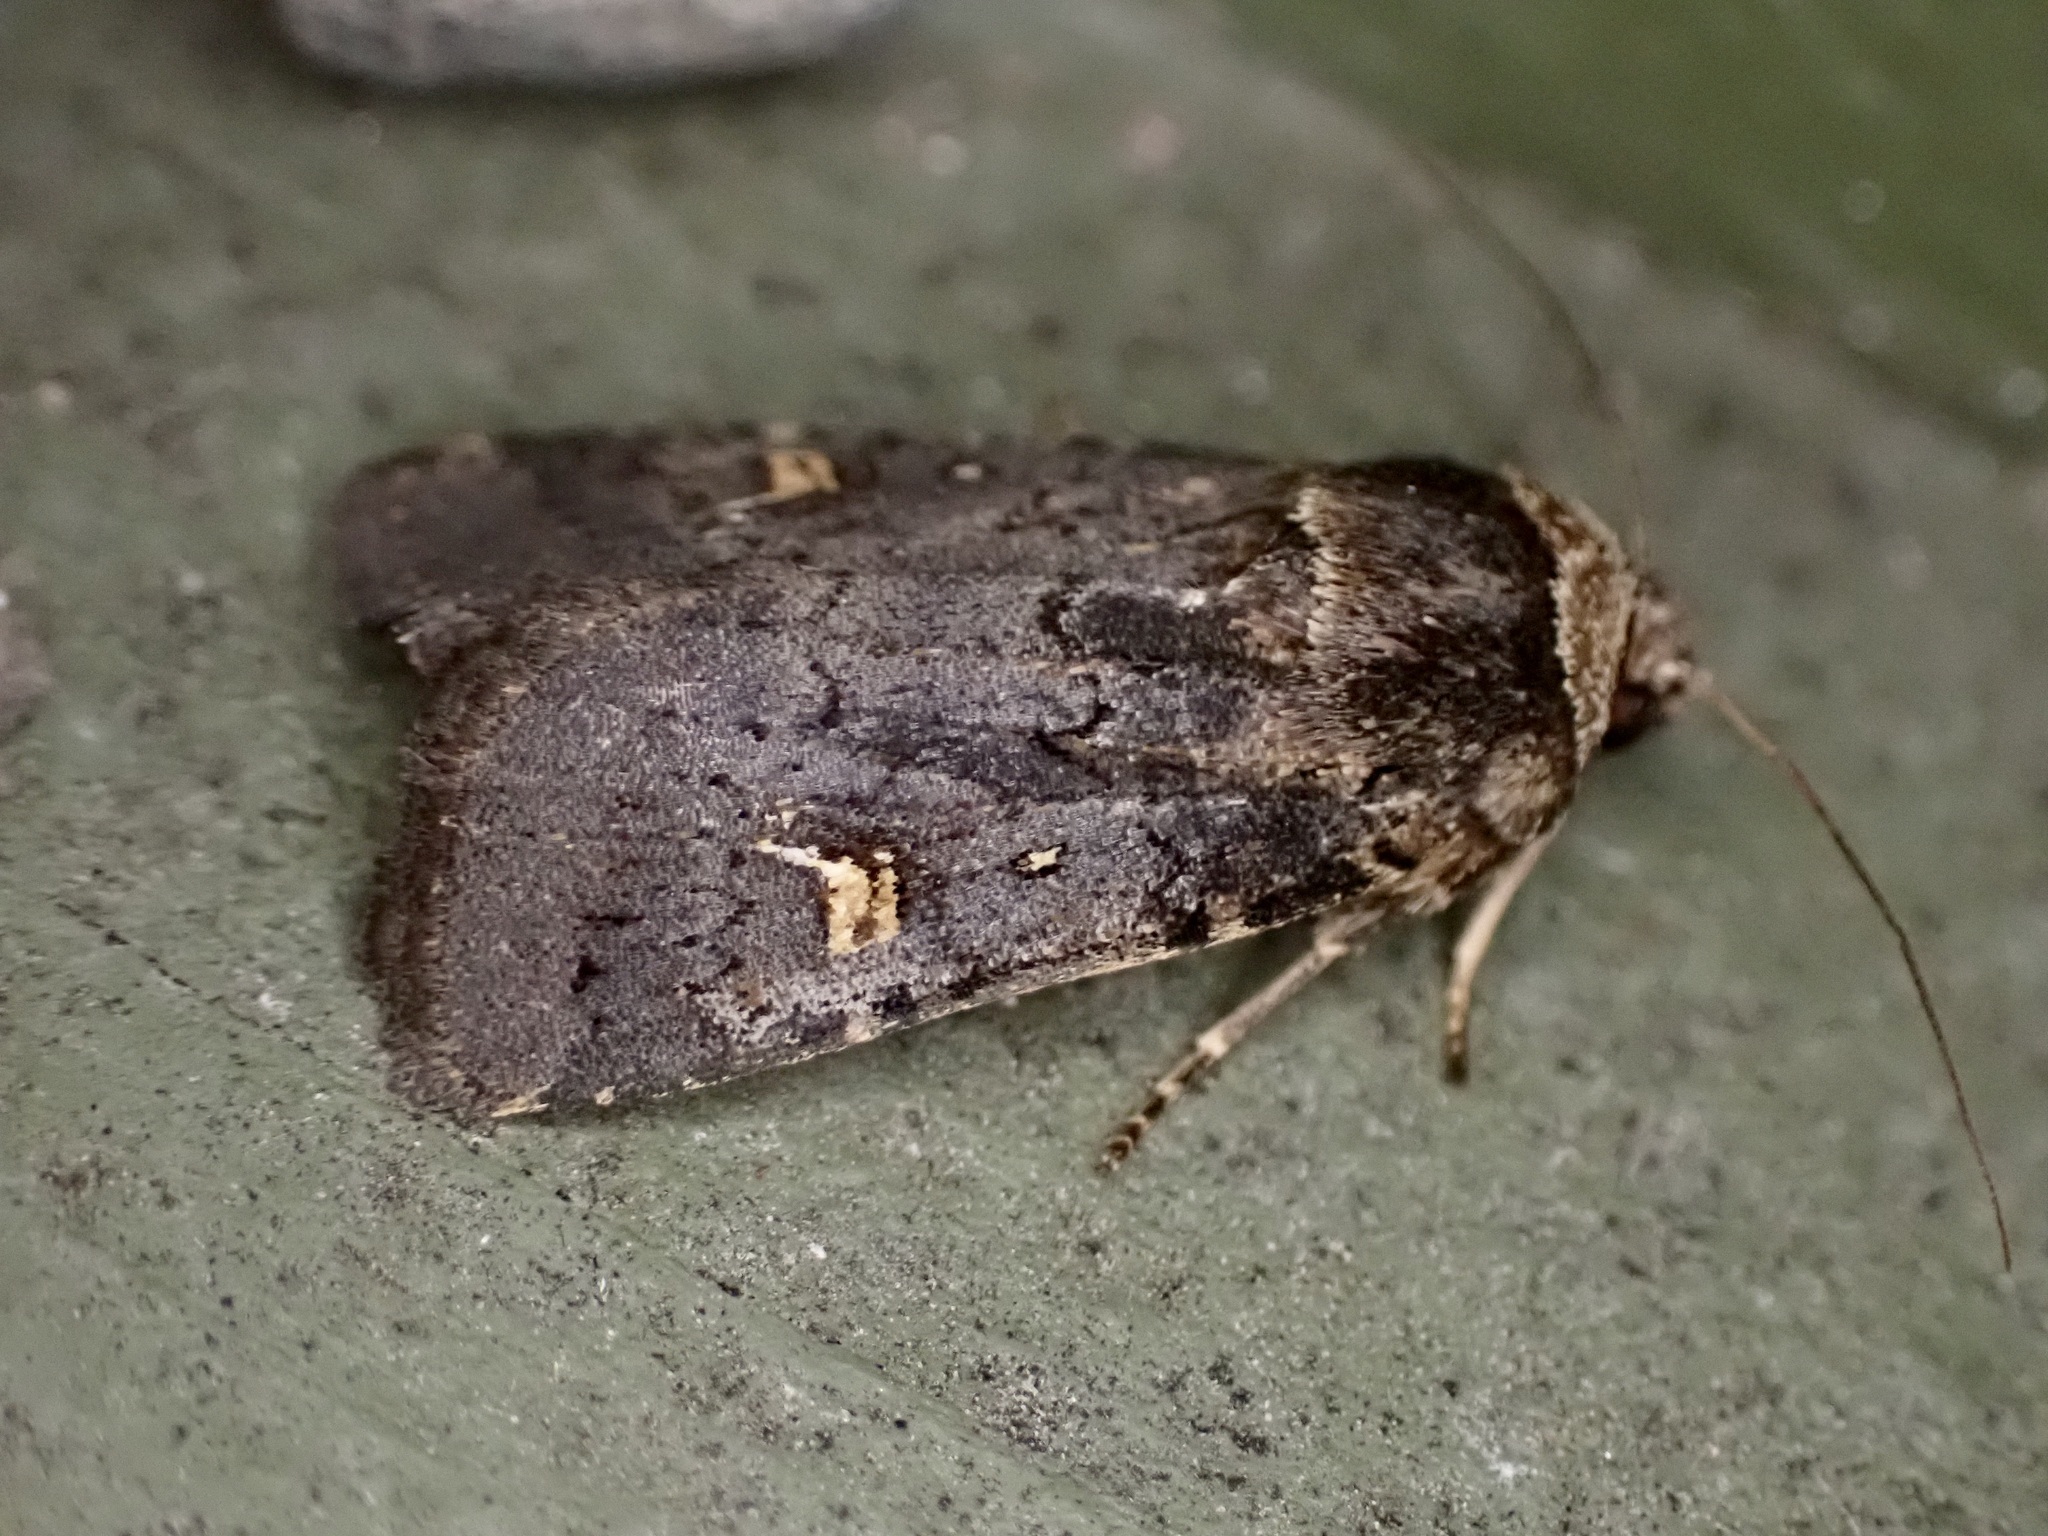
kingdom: Animalia
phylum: Arthropoda
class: Insecta
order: Lepidoptera
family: Noctuidae
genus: Proteuxoa
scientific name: Proteuxoa tetronycha
